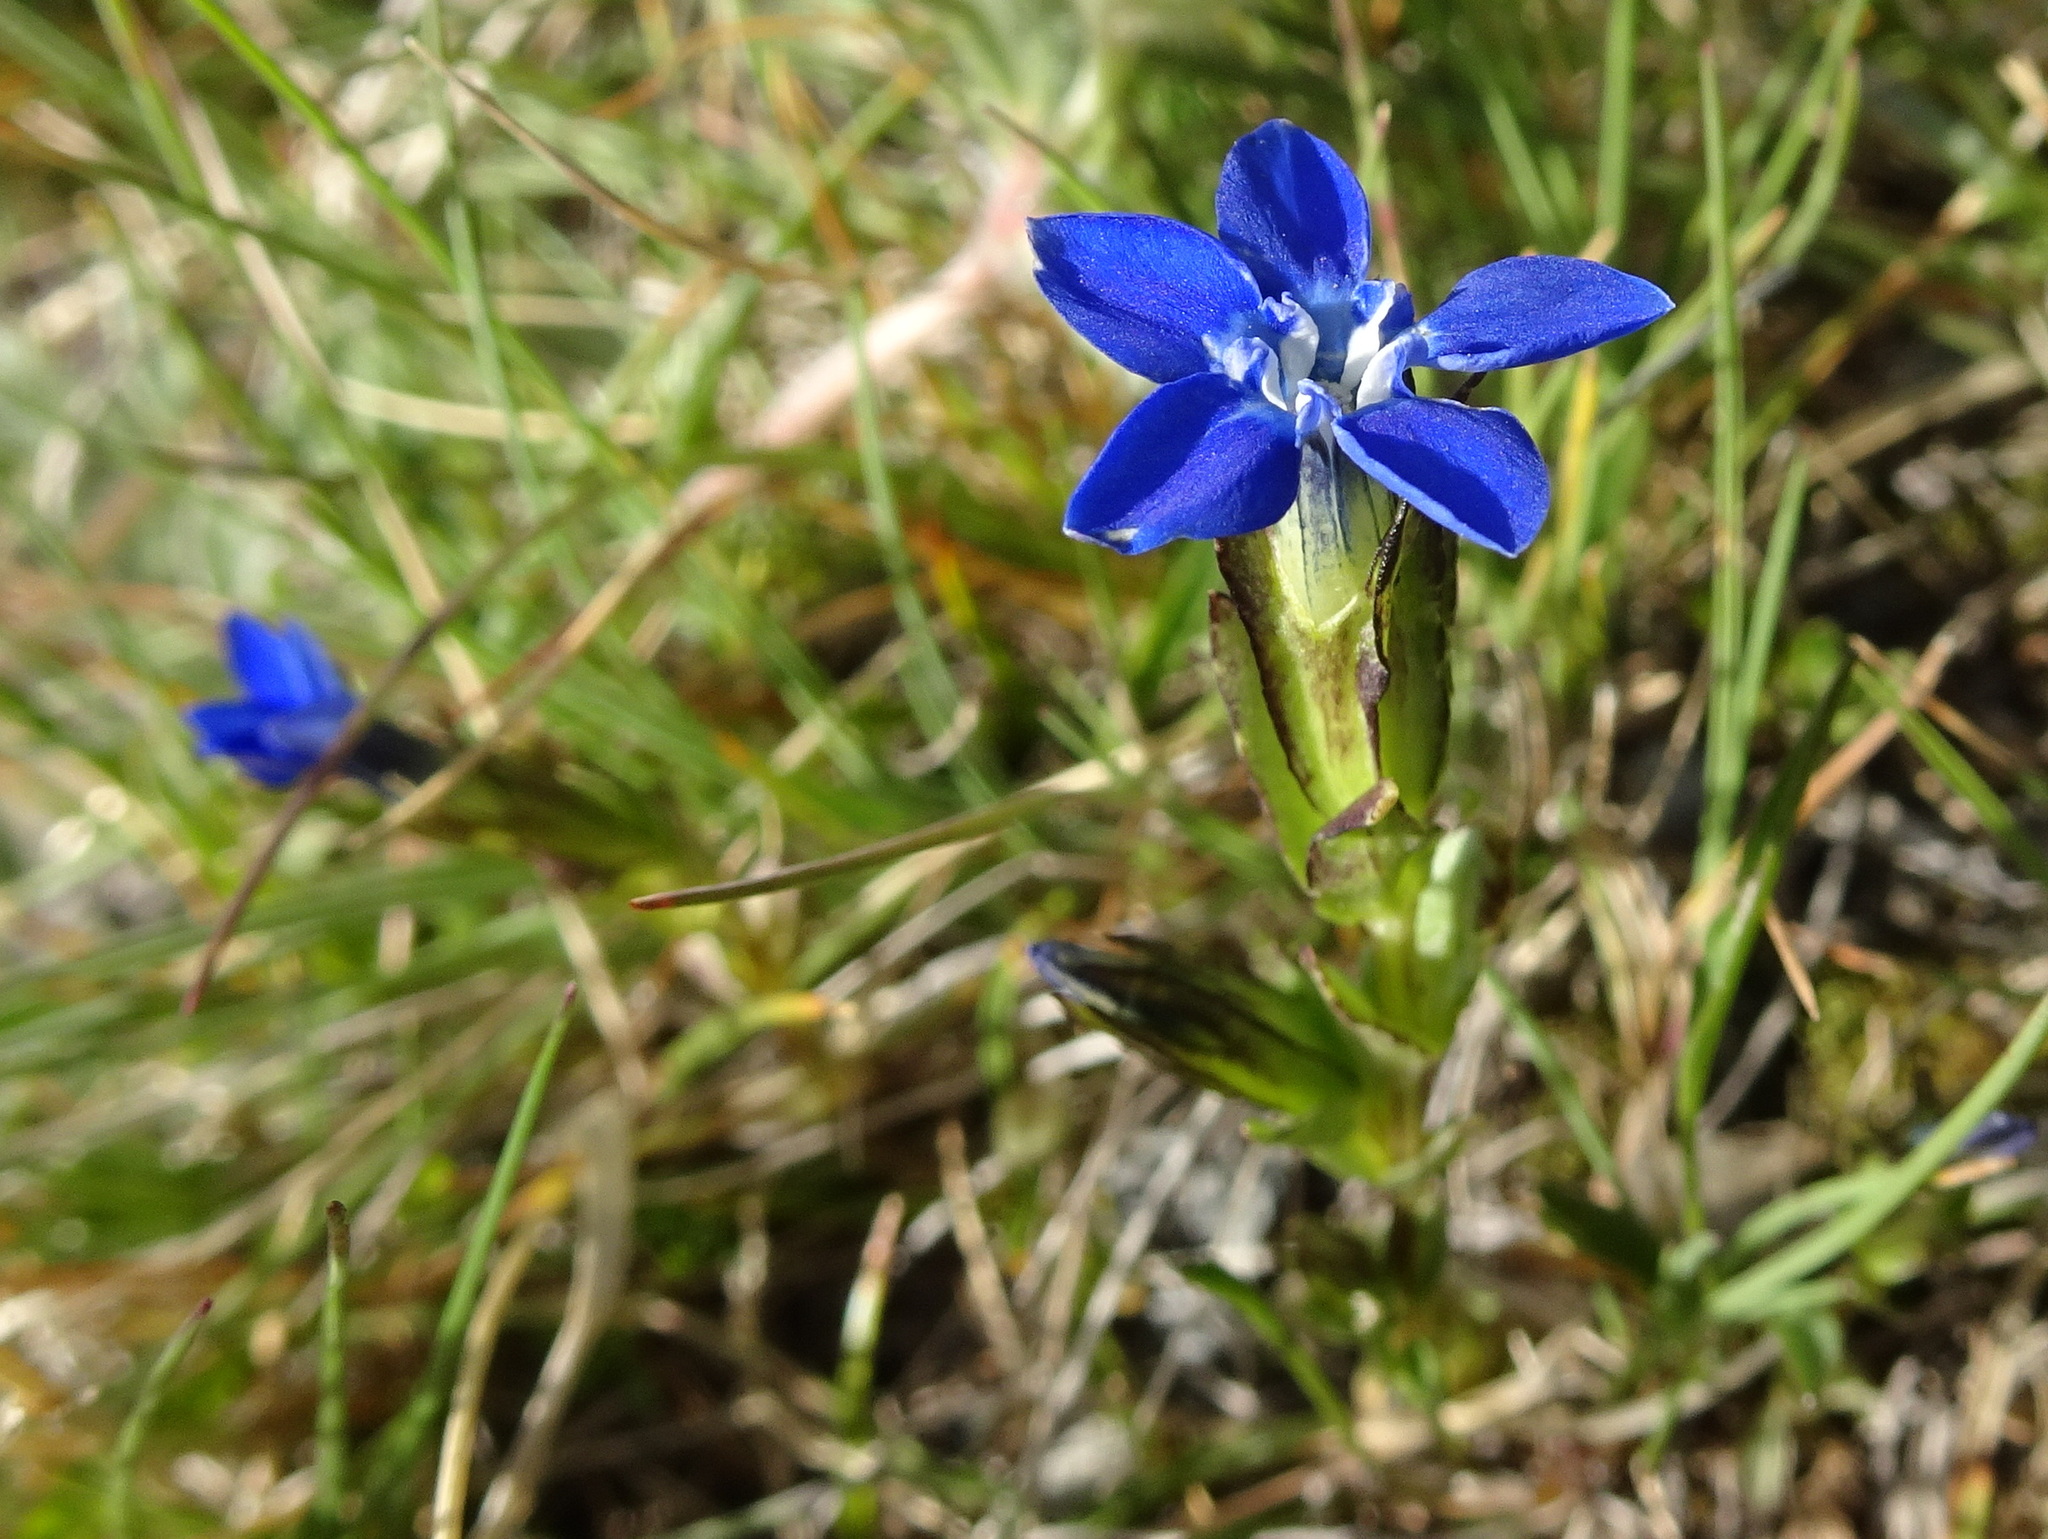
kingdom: Plantae
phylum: Tracheophyta
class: Magnoliopsida
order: Gentianales
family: Gentianaceae
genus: Gentiana
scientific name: Gentiana nivalis
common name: Alpine gentian
